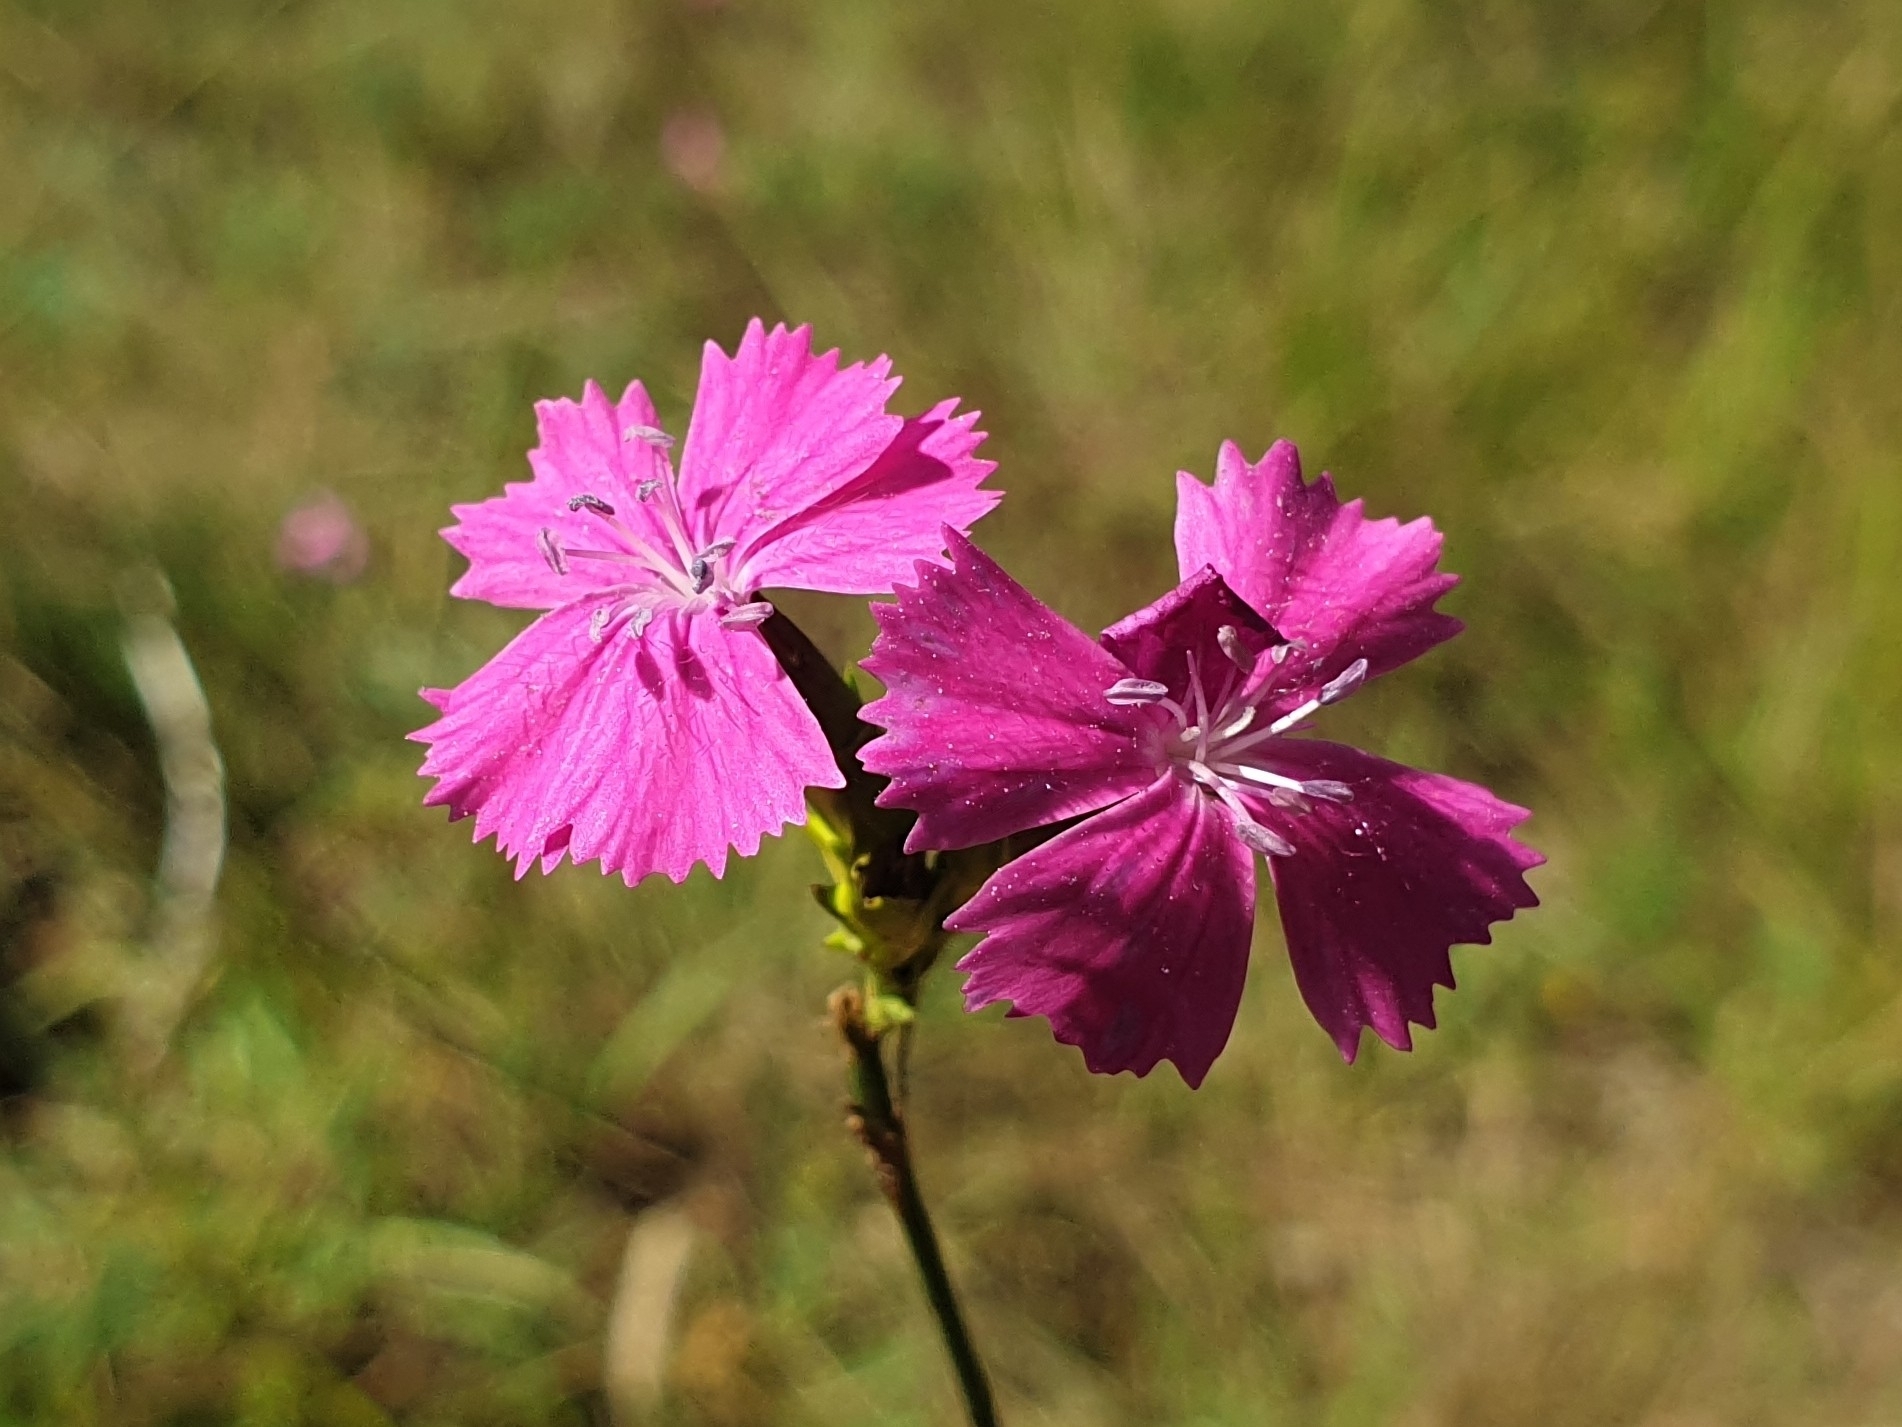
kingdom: Plantae
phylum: Tracheophyta
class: Magnoliopsida
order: Caryophyllales
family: Caryophyllaceae
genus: Dianthus
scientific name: Dianthus carthusianorum
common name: Carthusian pink
